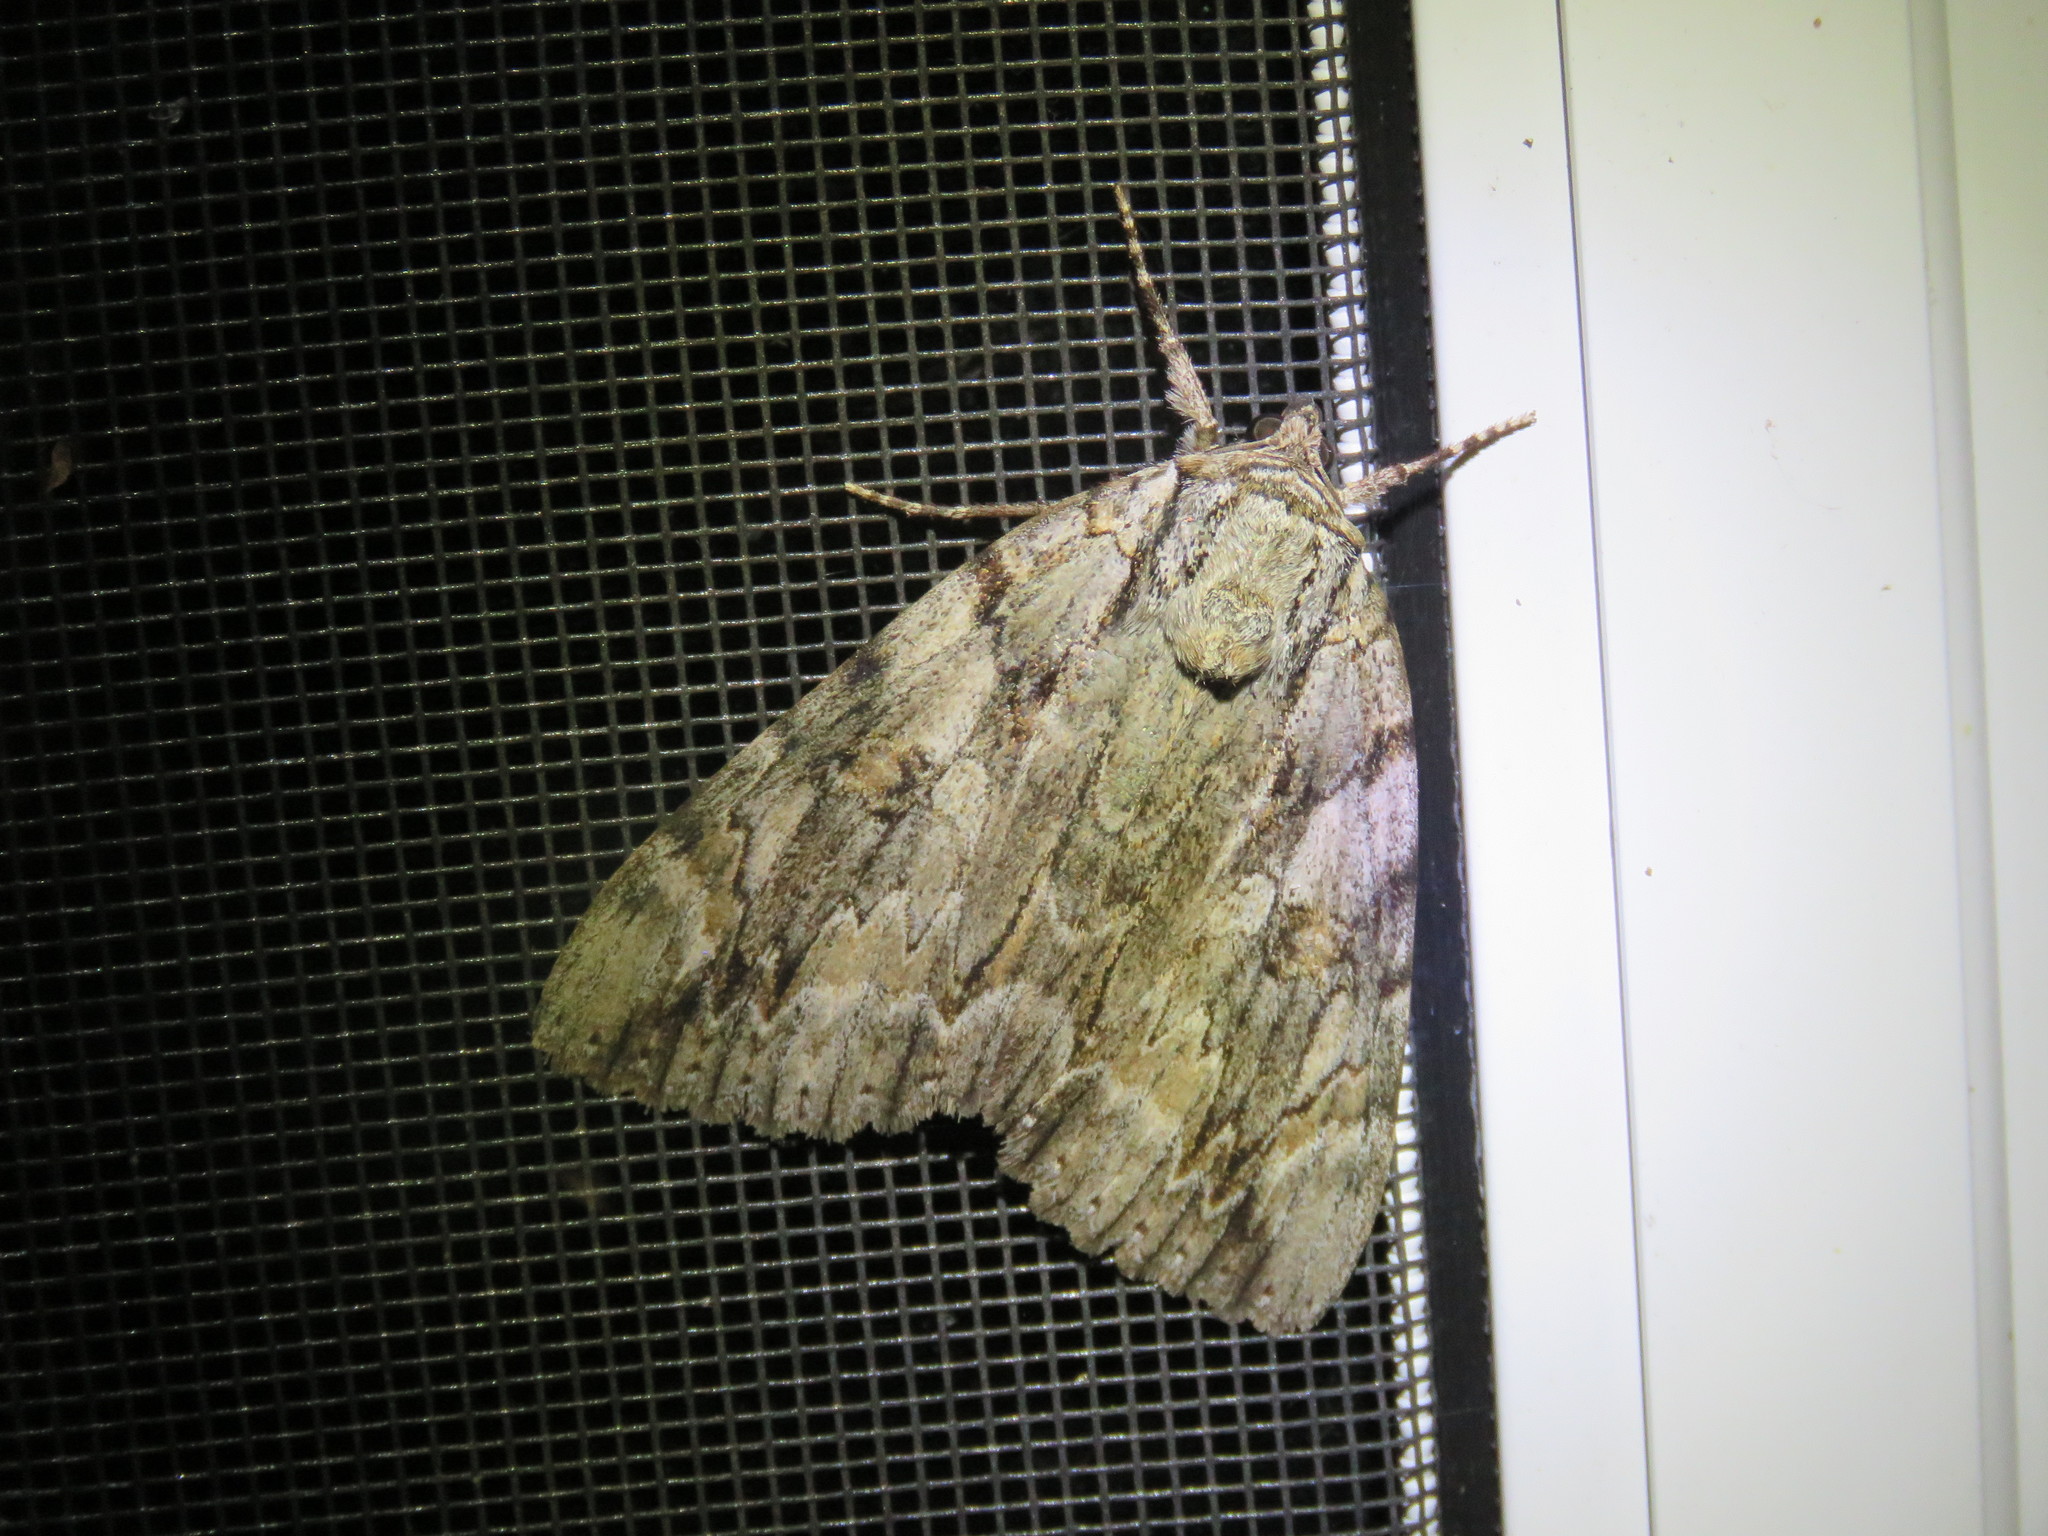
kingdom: Animalia
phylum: Arthropoda
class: Insecta
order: Lepidoptera
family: Erebidae
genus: Catocala
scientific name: Catocala subnata
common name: Youthful underwing
